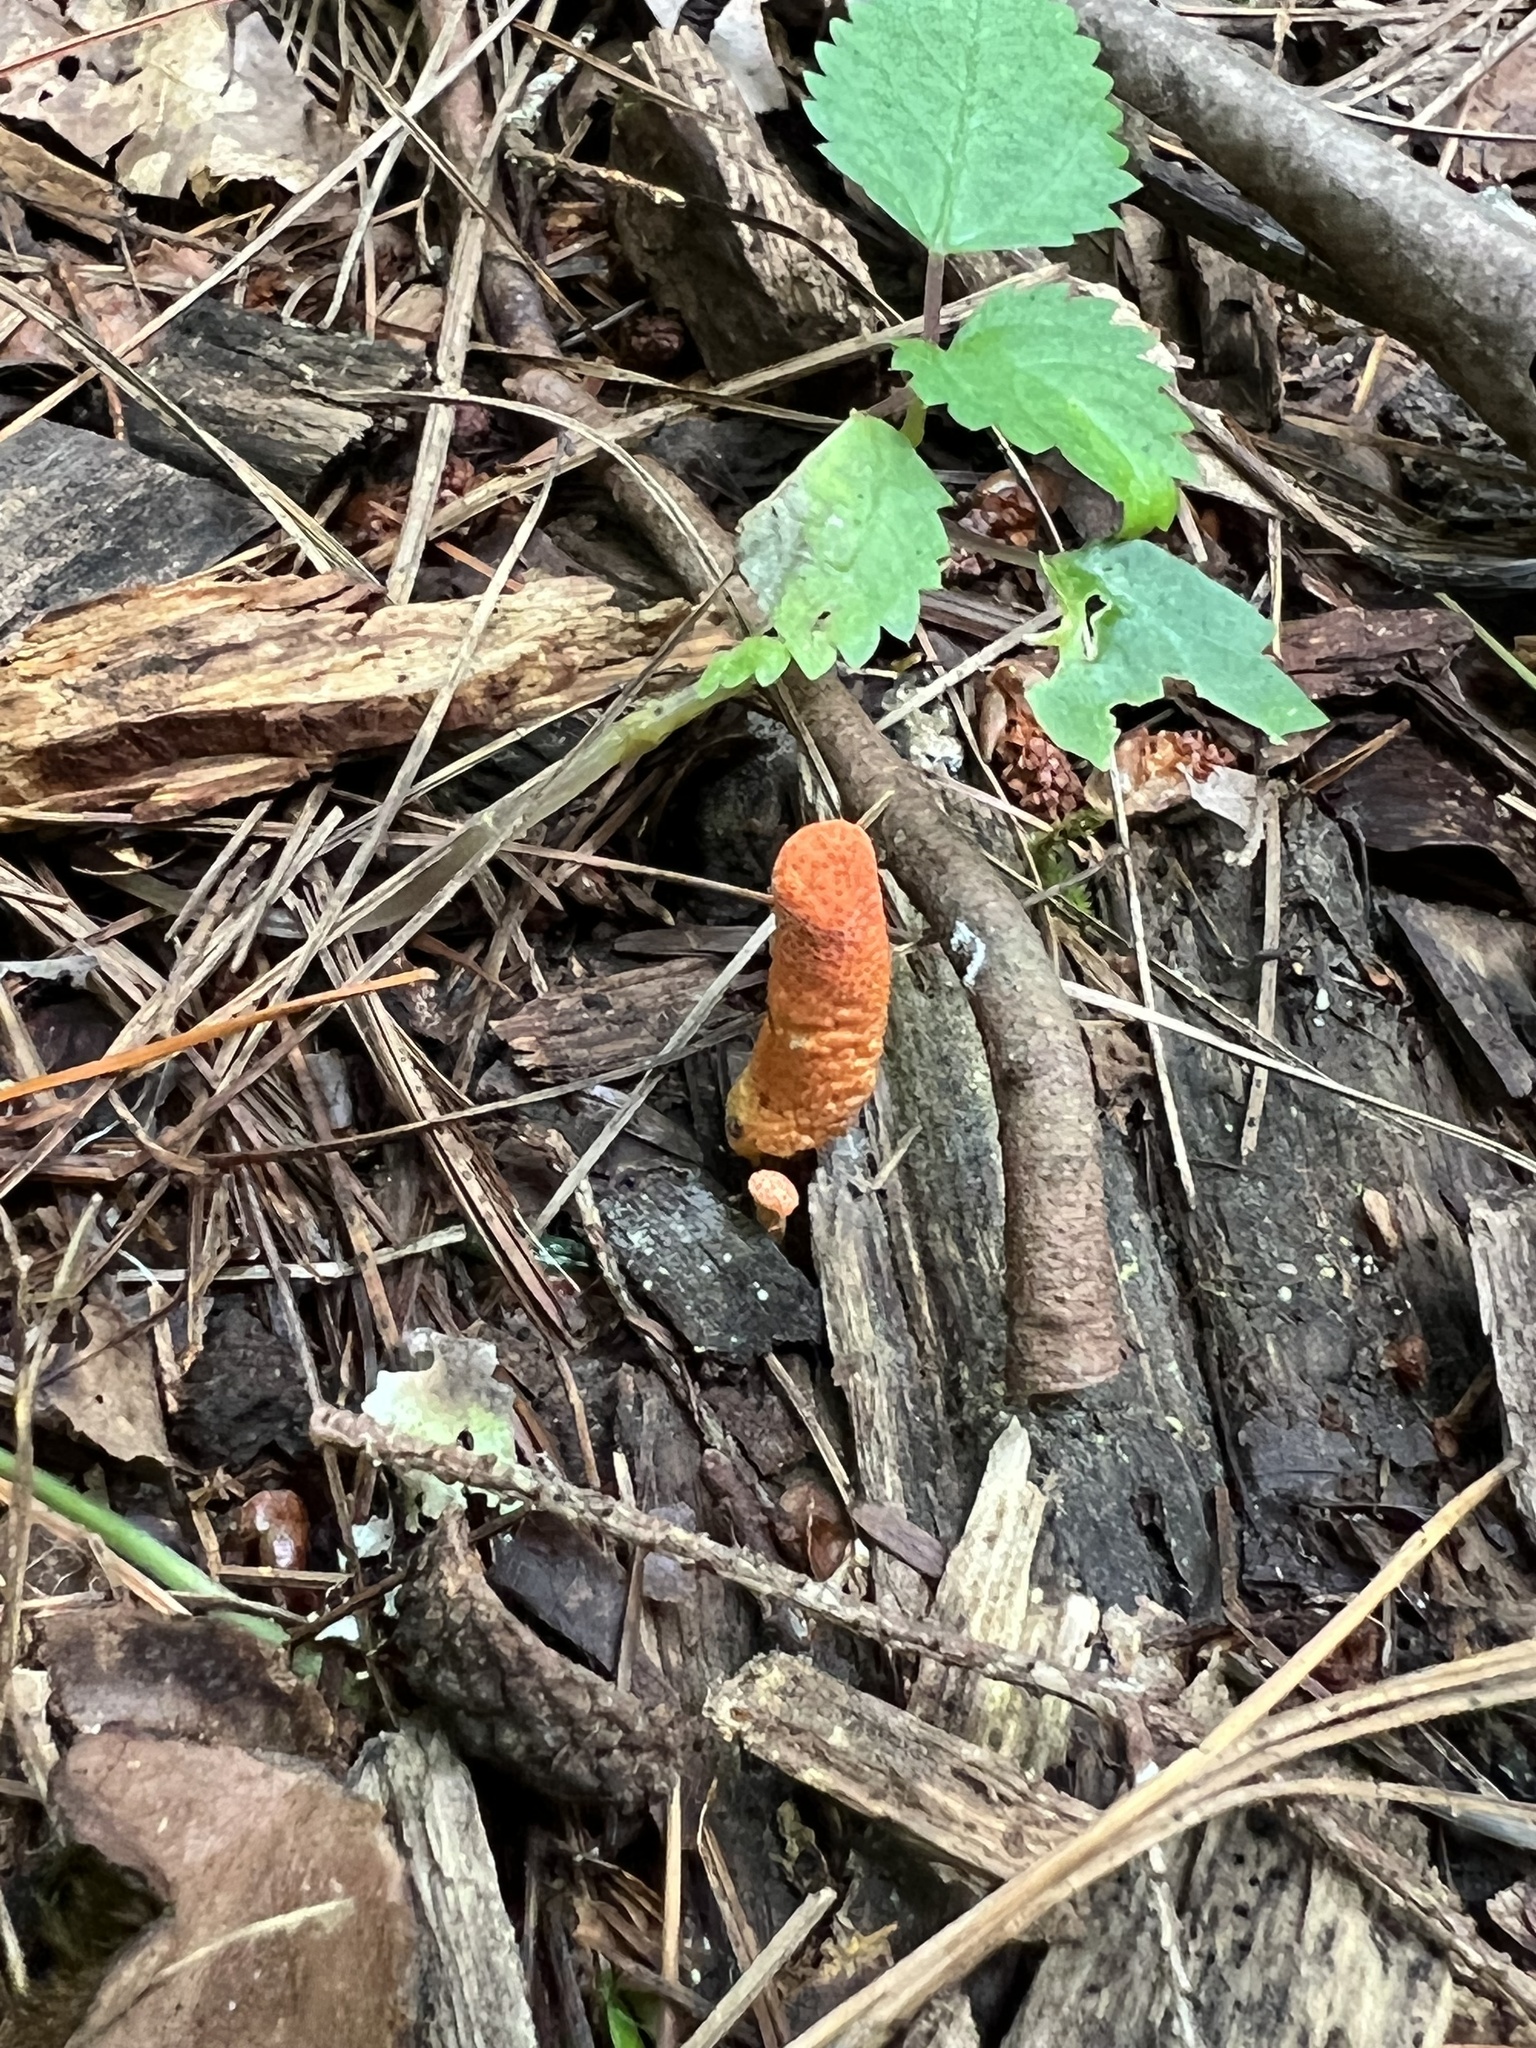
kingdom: Fungi
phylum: Ascomycota
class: Sordariomycetes
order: Hypocreales
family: Cordycipitaceae
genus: Cordyceps
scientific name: Cordyceps militaris
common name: Scarlet caterpillar fungus
